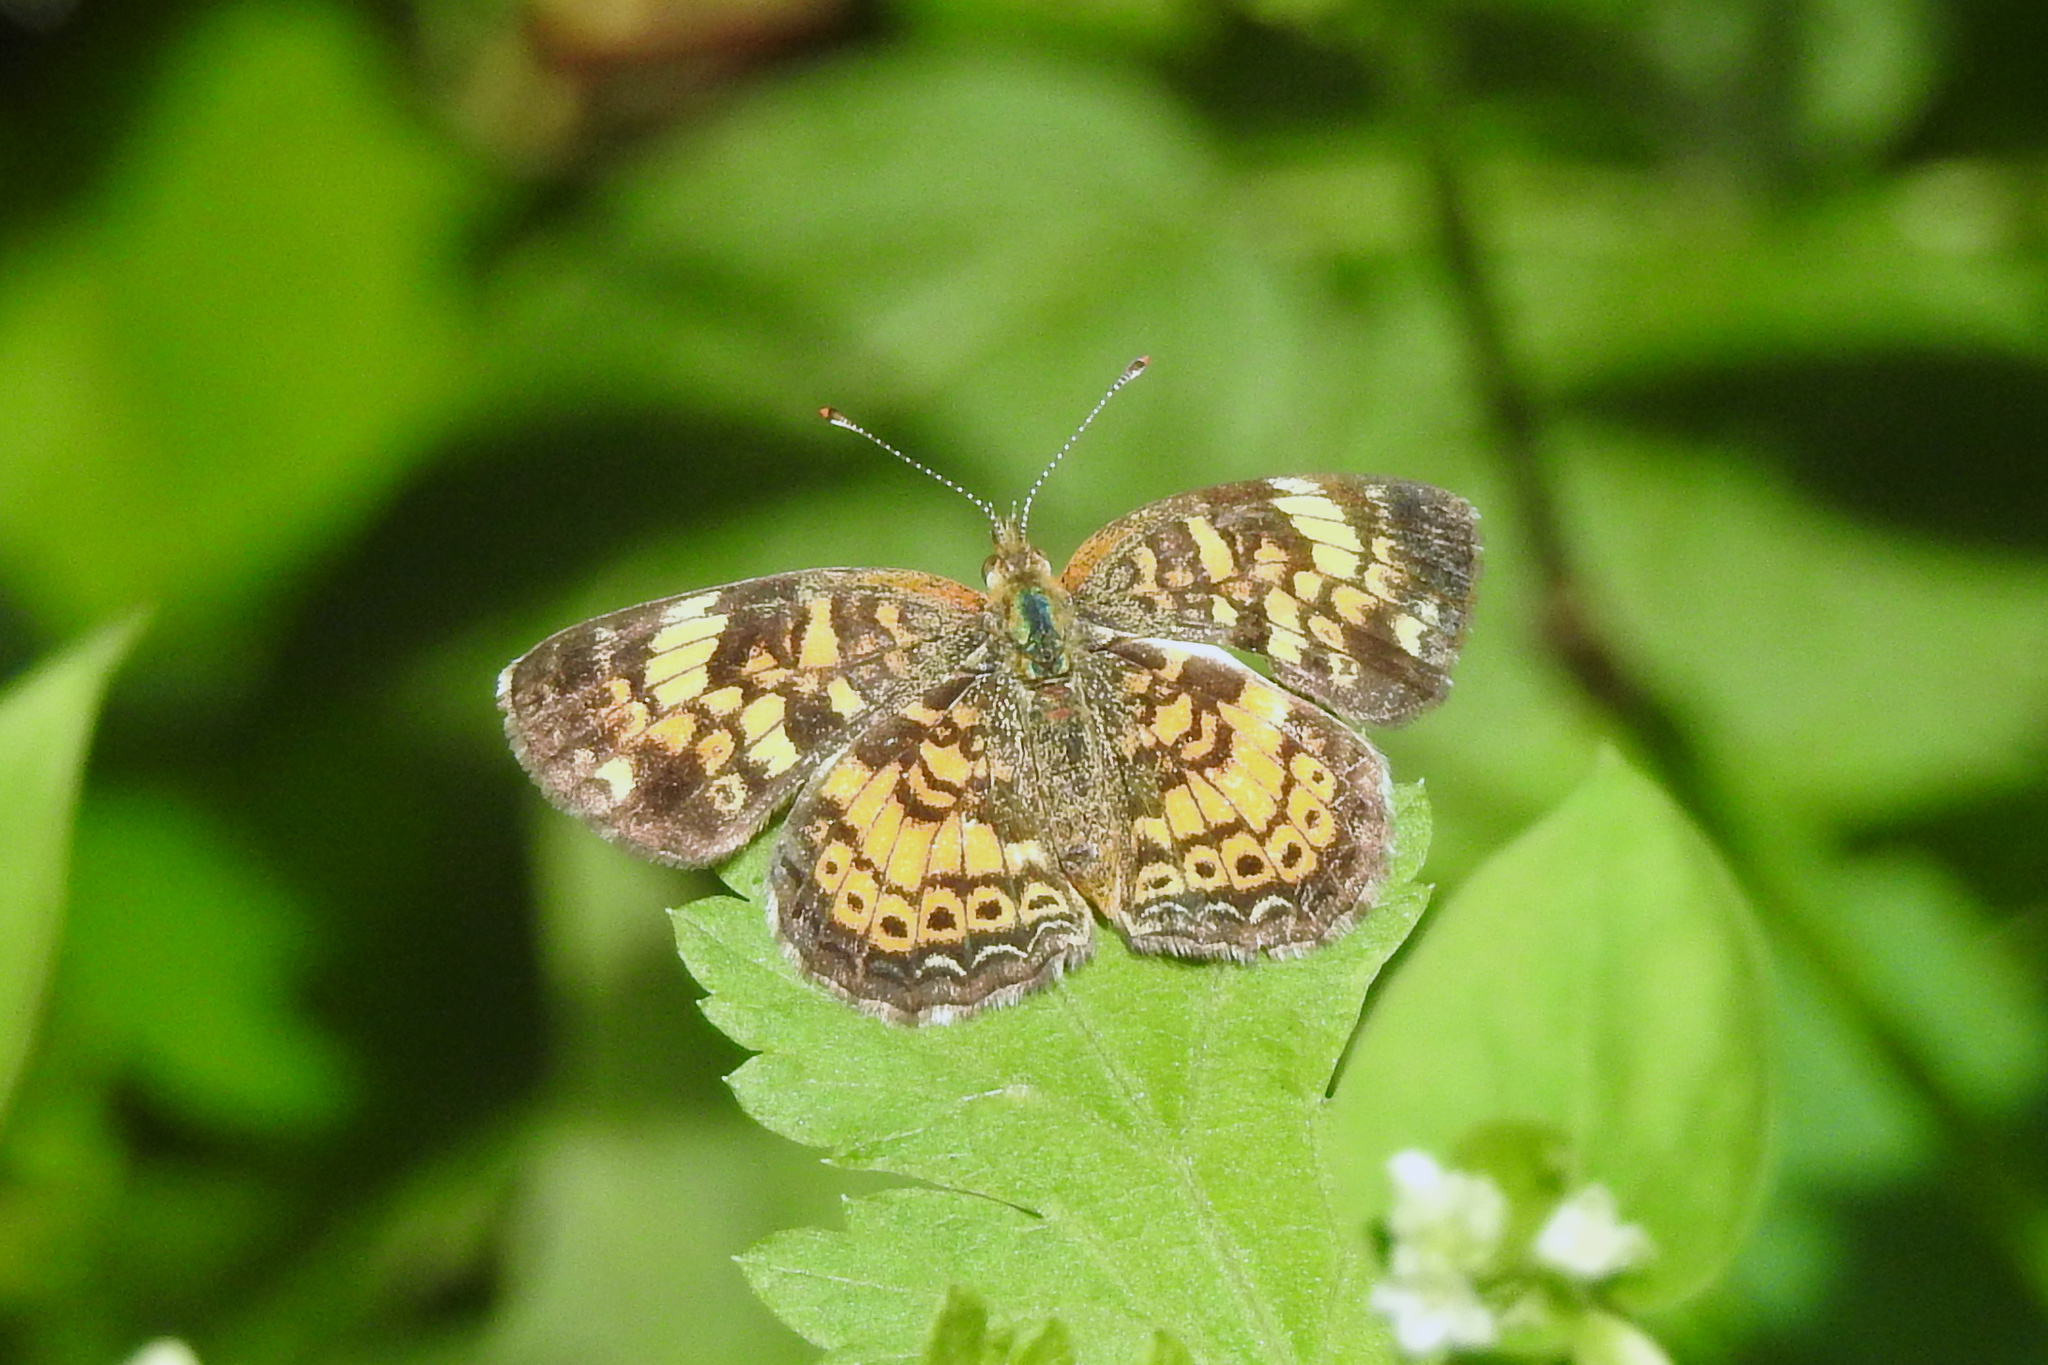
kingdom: Animalia
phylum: Arthropoda
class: Insecta
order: Lepidoptera
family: Nymphalidae
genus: Phyciodes
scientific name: Phyciodes tharos
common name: Pearl crescent
